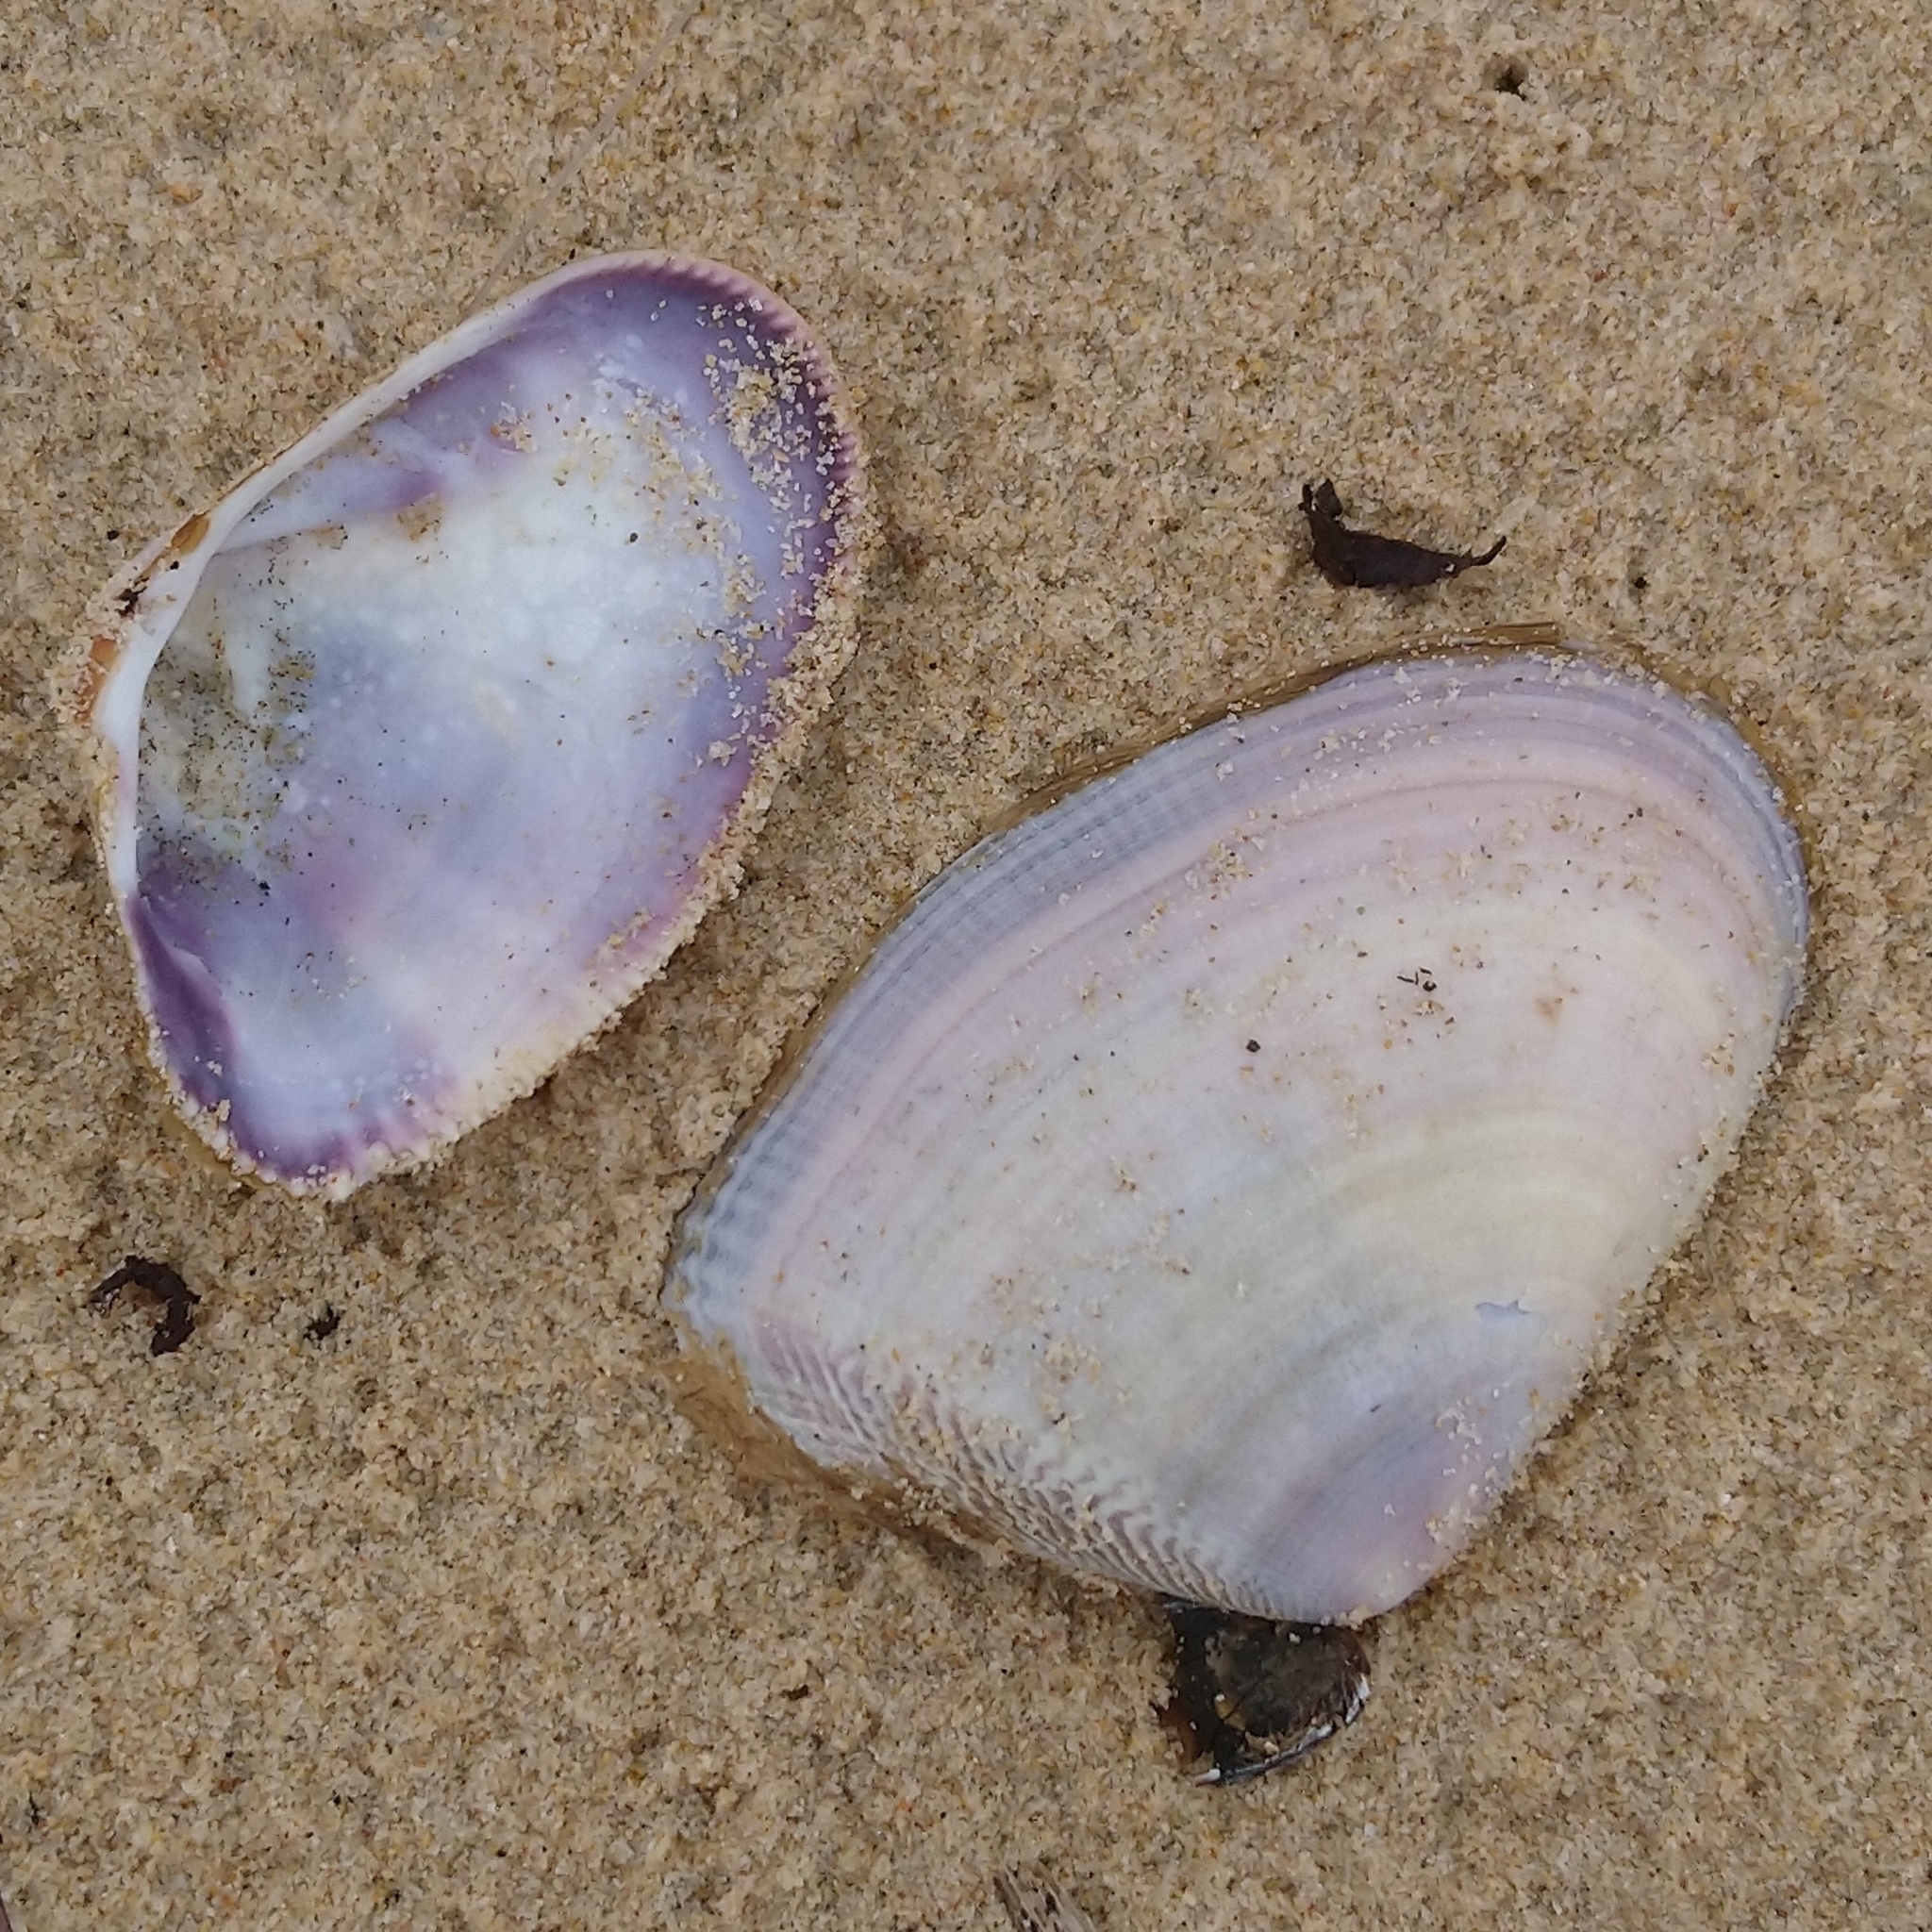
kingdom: Animalia
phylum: Mollusca
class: Bivalvia
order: Cardiida
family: Donacidae
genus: Donax
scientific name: Donax serra
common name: Giant south african wedge clam
